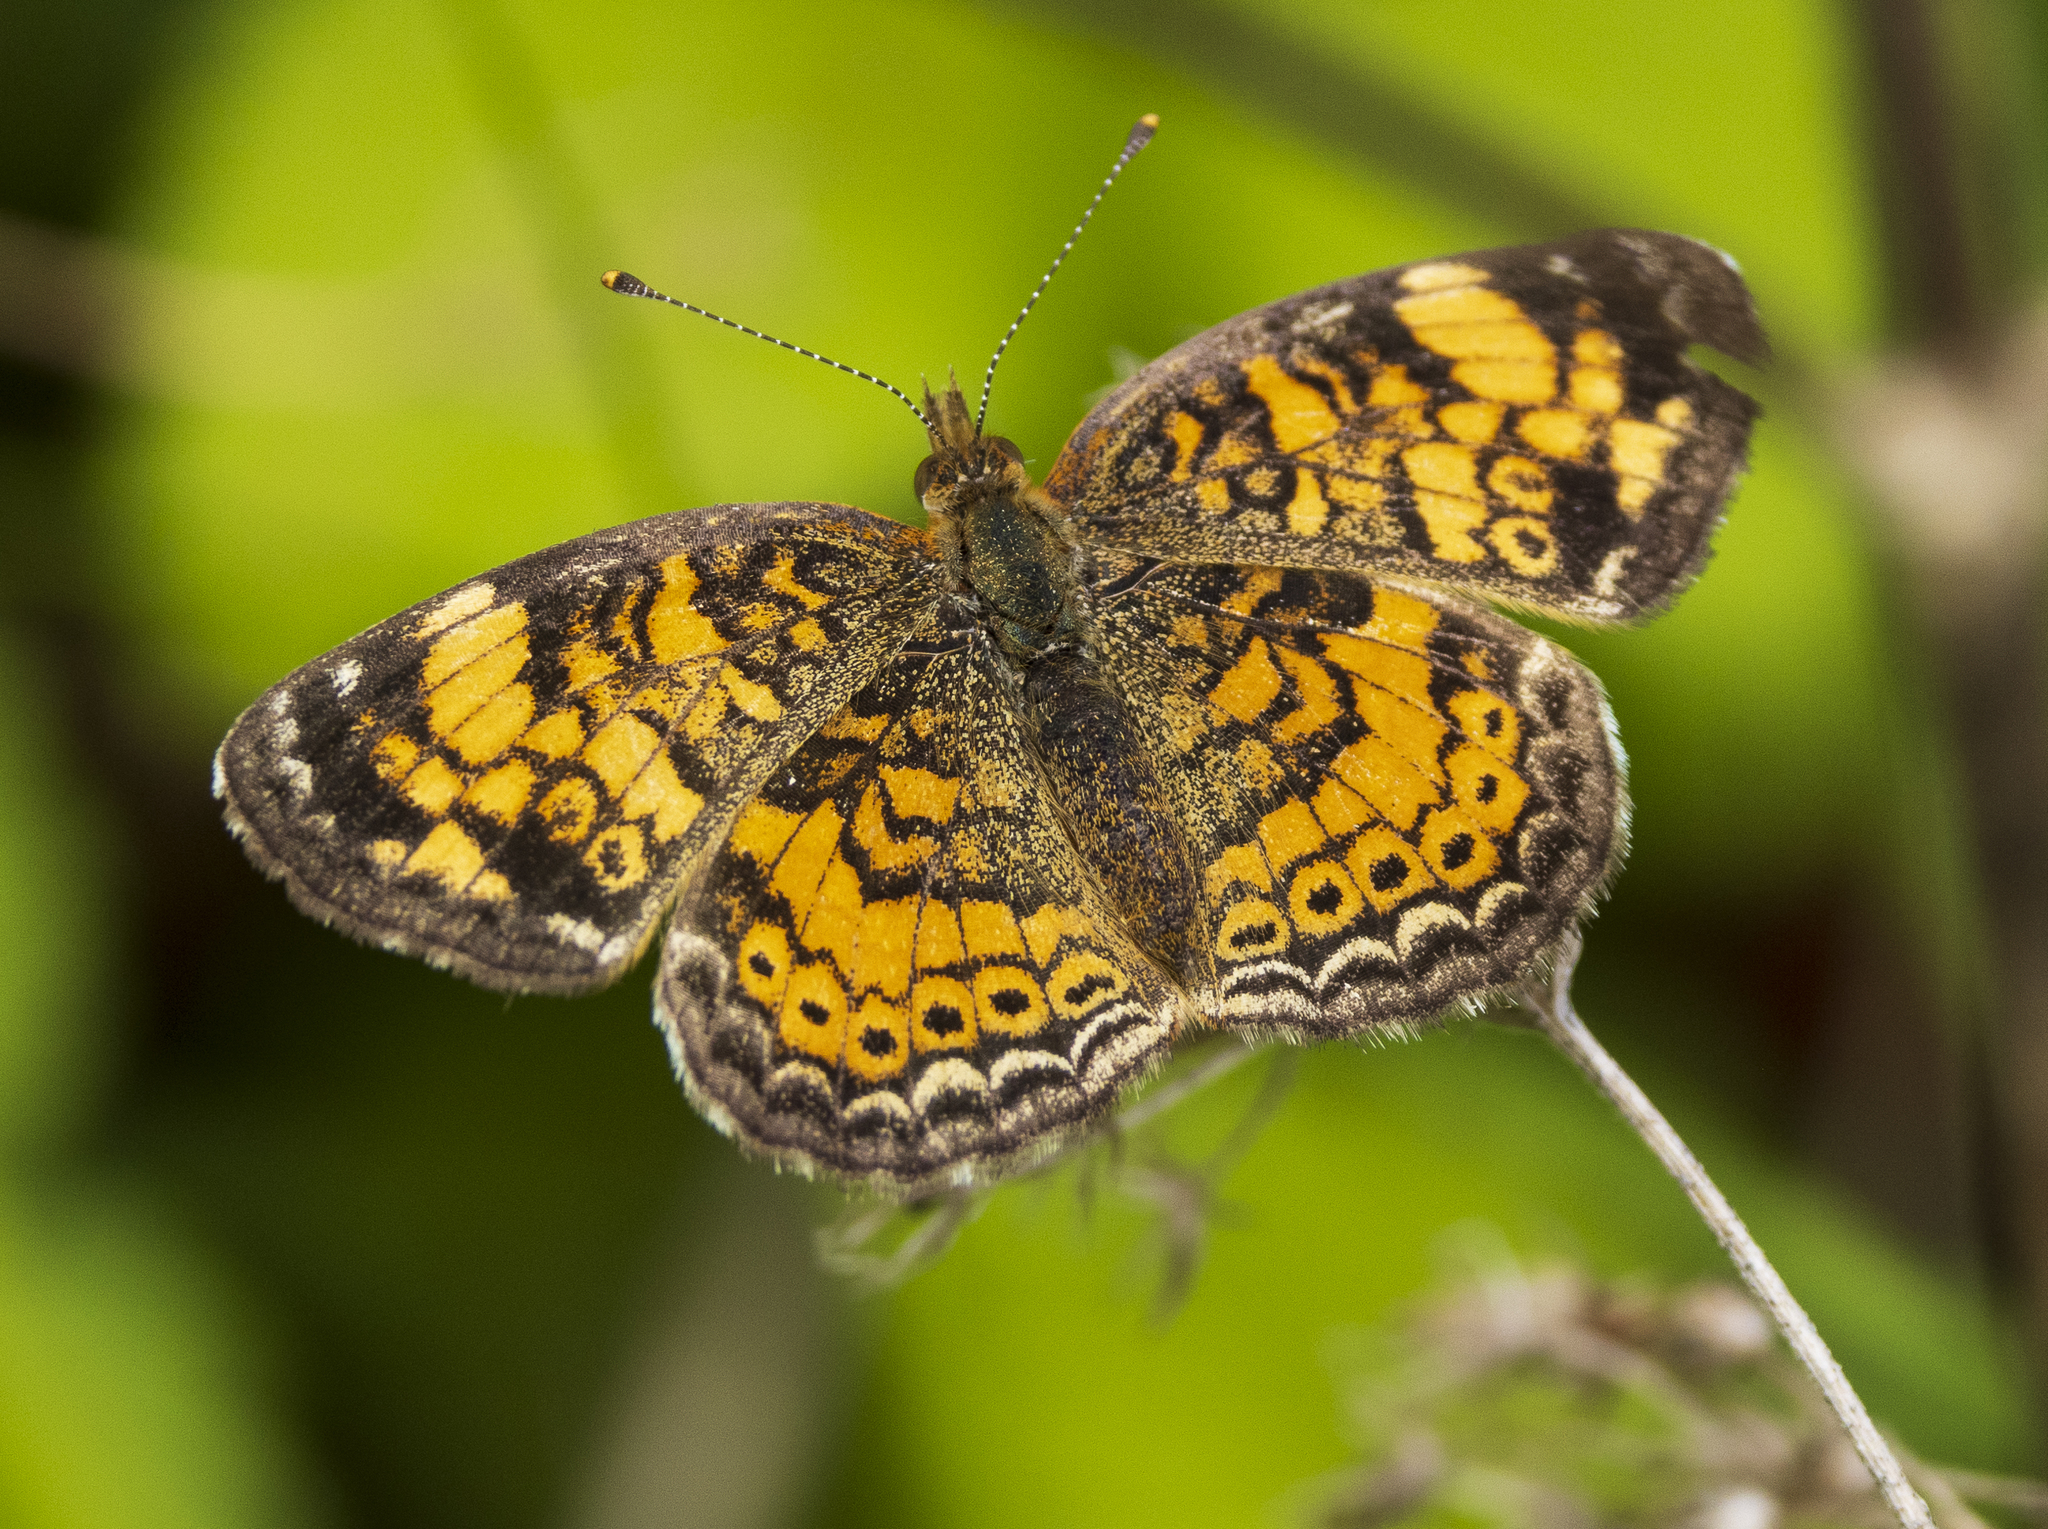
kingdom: Animalia
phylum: Arthropoda
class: Insecta
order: Lepidoptera
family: Nymphalidae
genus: Phyciodes
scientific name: Phyciodes tharos
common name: Pearl crescent
